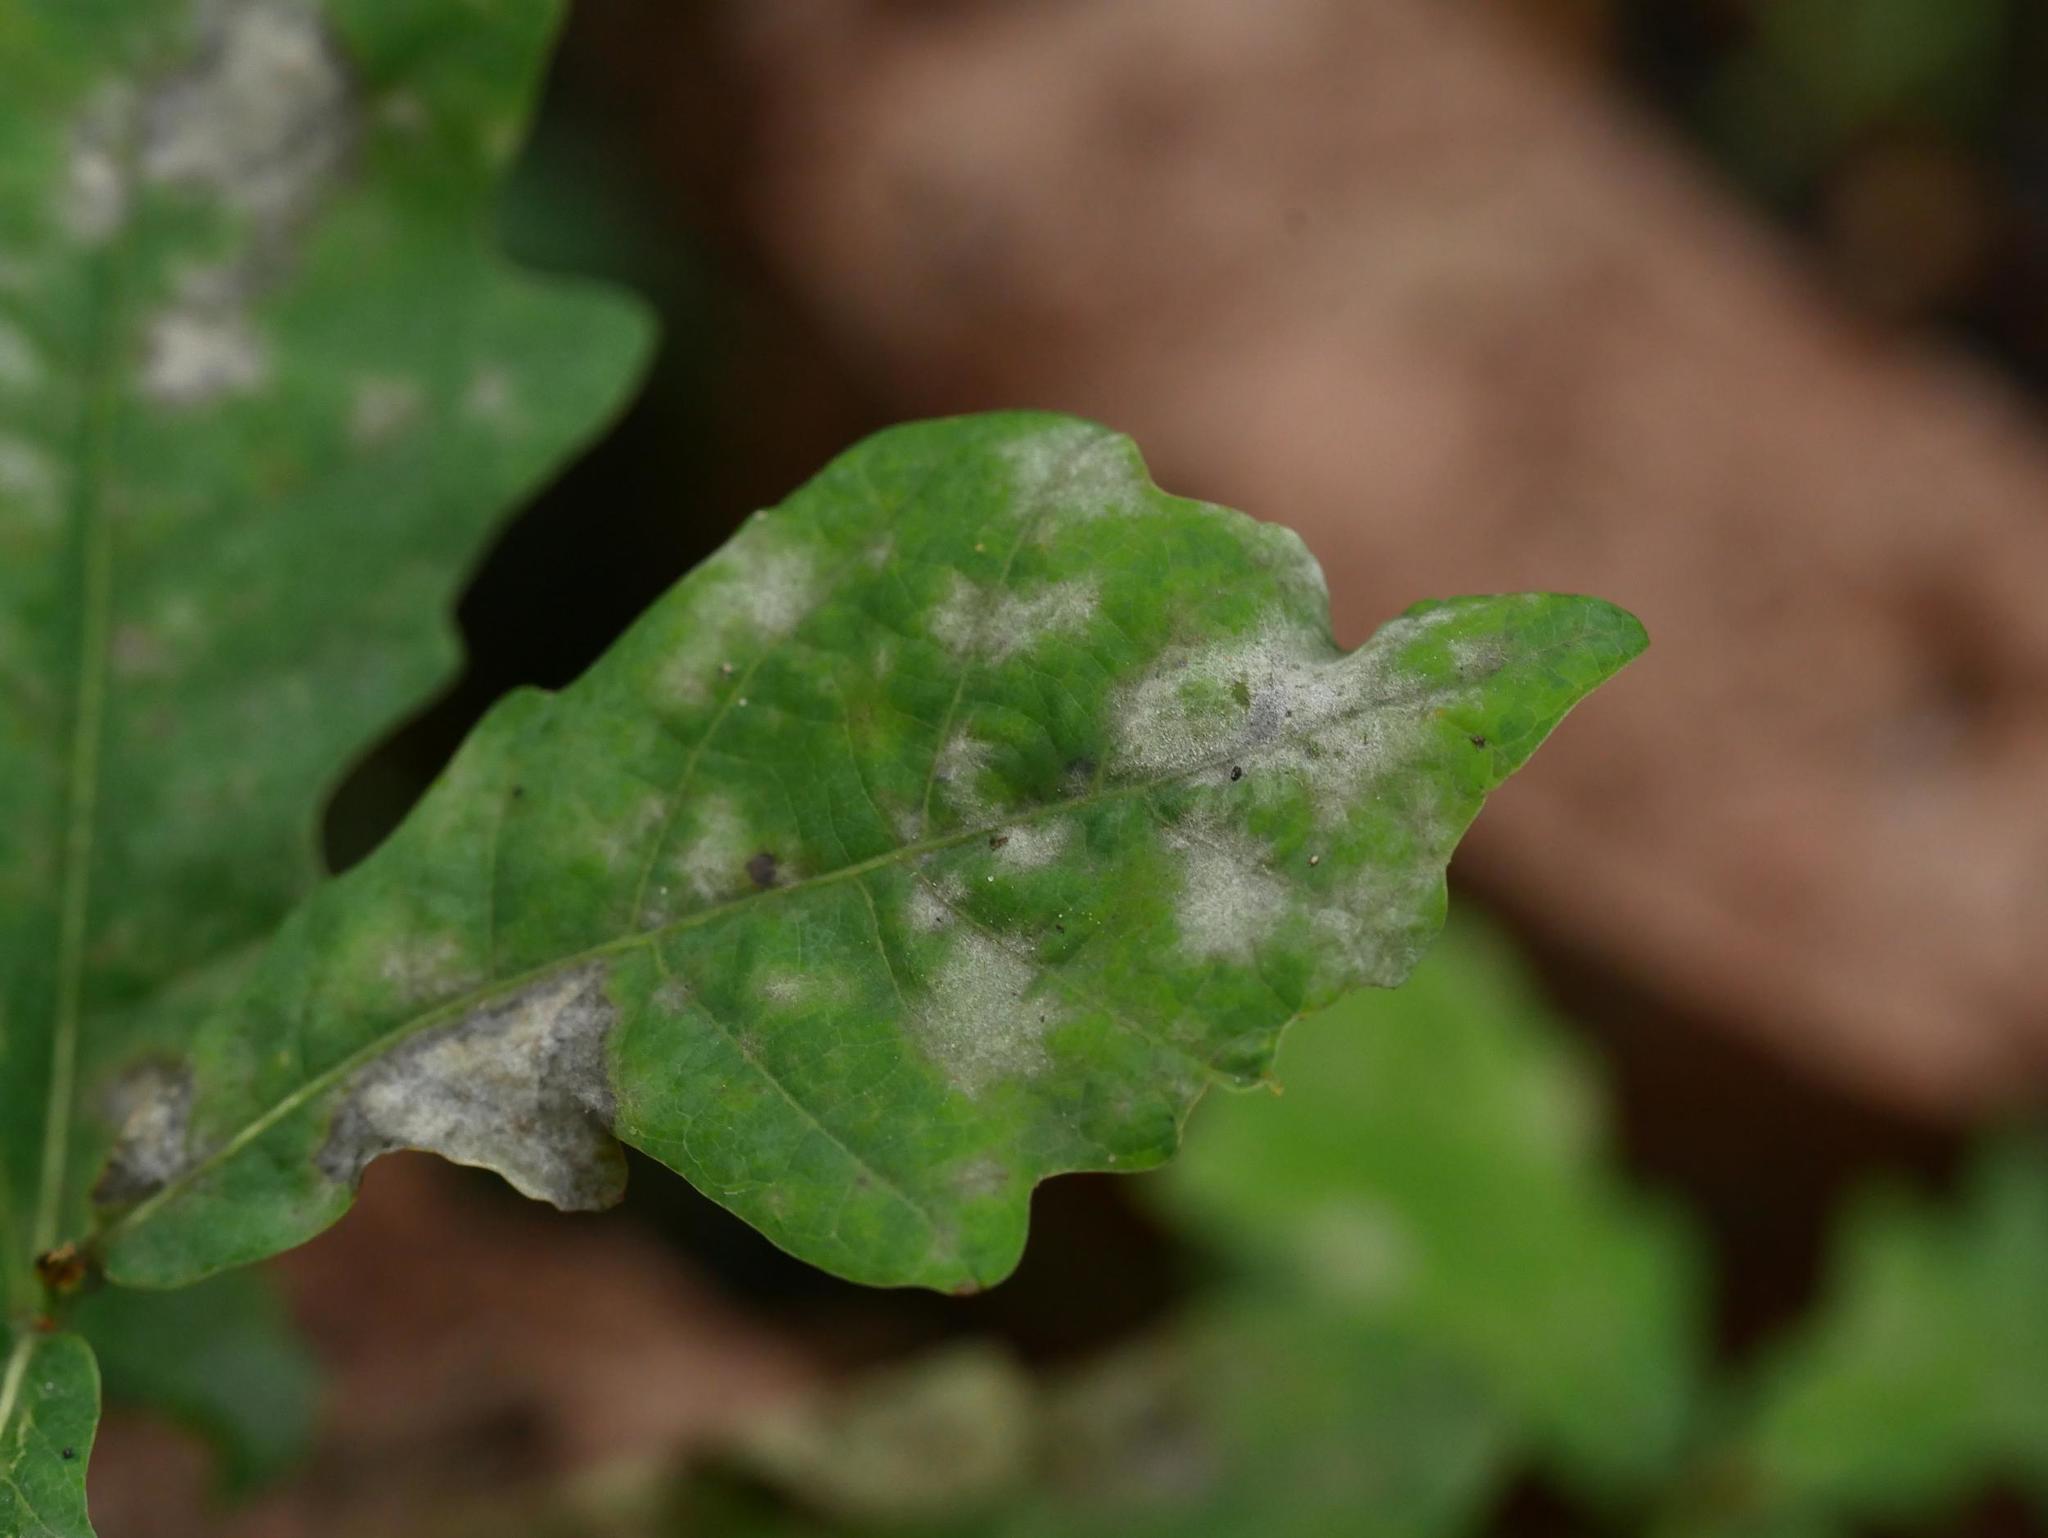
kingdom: Fungi
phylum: Ascomycota
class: Leotiomycetes
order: Helotiales
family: Erysiphaceae
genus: Erysiphe
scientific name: Erysiphe
